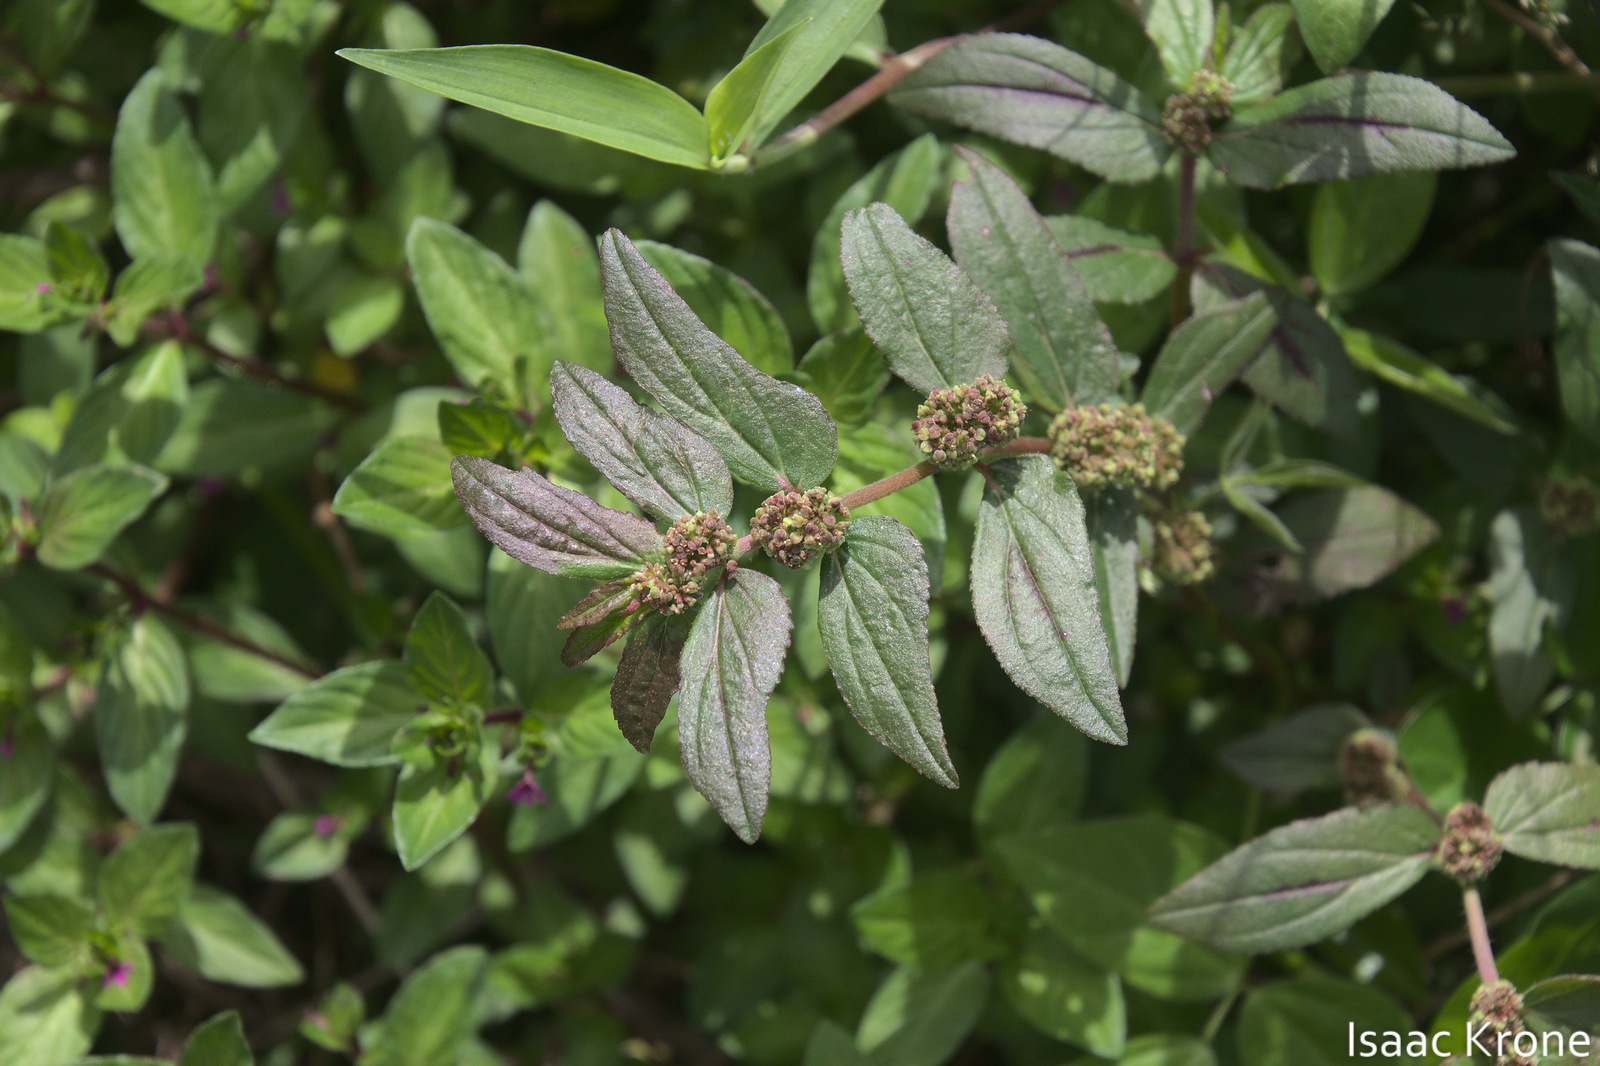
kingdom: Plantae
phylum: Tracheophyta
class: Magnoliopsida
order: Malpighiales
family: Euphorbiaceae
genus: Euphorbia
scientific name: Euphorbia hirta
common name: Pillpod sandmat
